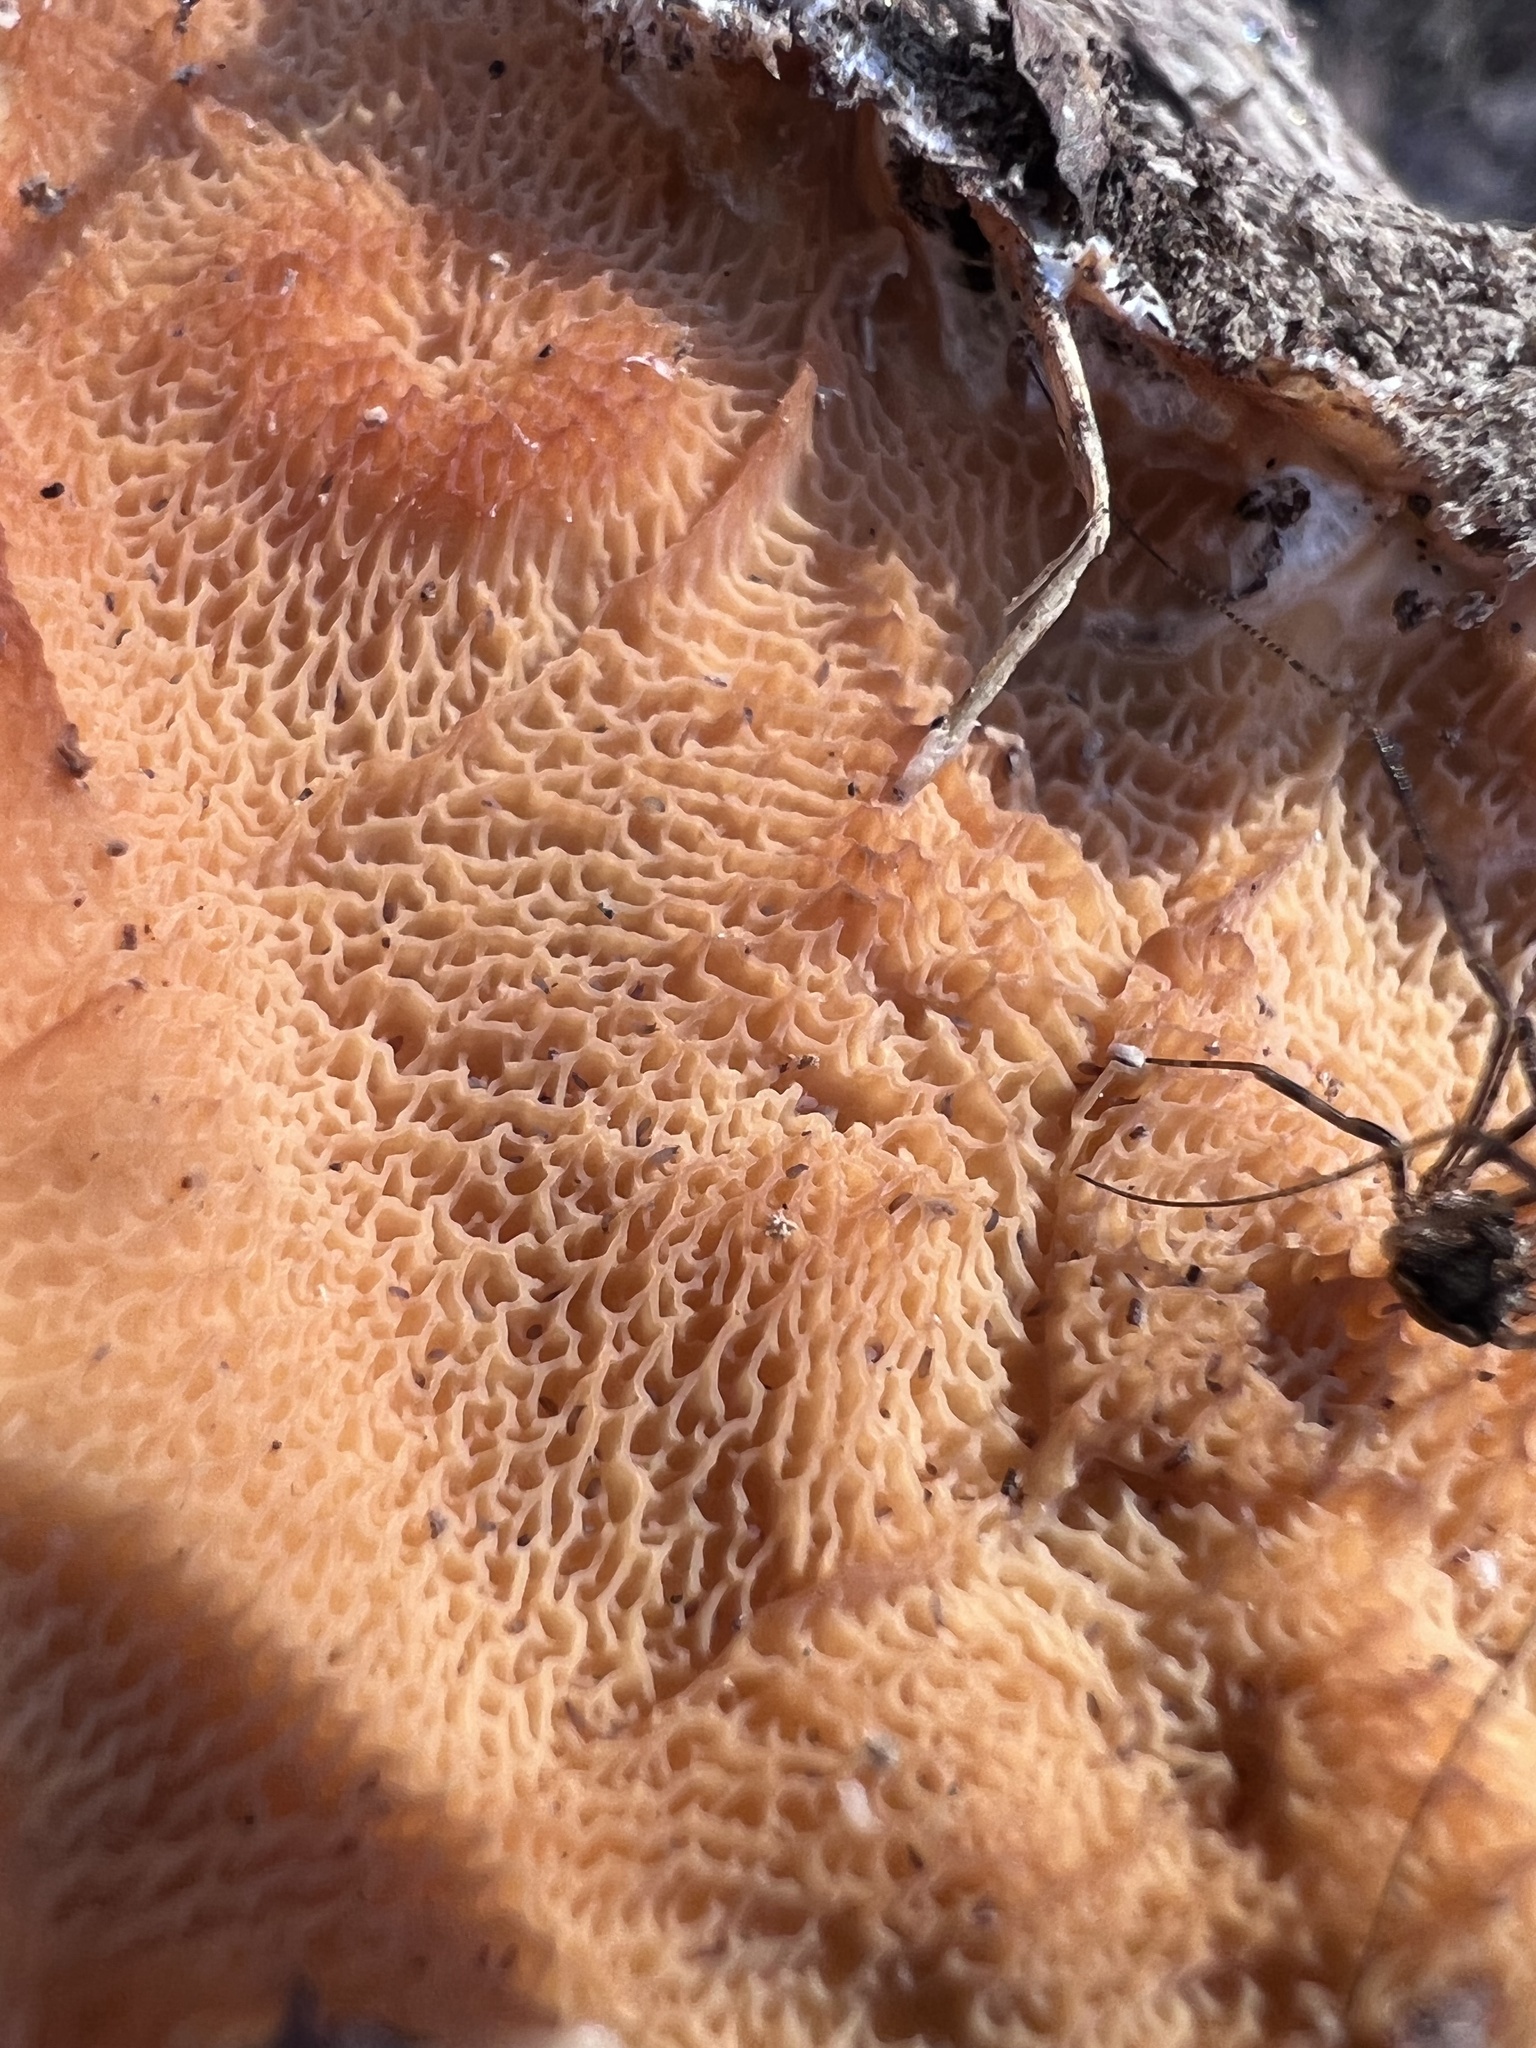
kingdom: Fungi
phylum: Basidiomycota
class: Agaricomycetes
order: Polyporales
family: Meruliaceae
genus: Phlebia
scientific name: Phlebia tremellosa
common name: Jelly rot
